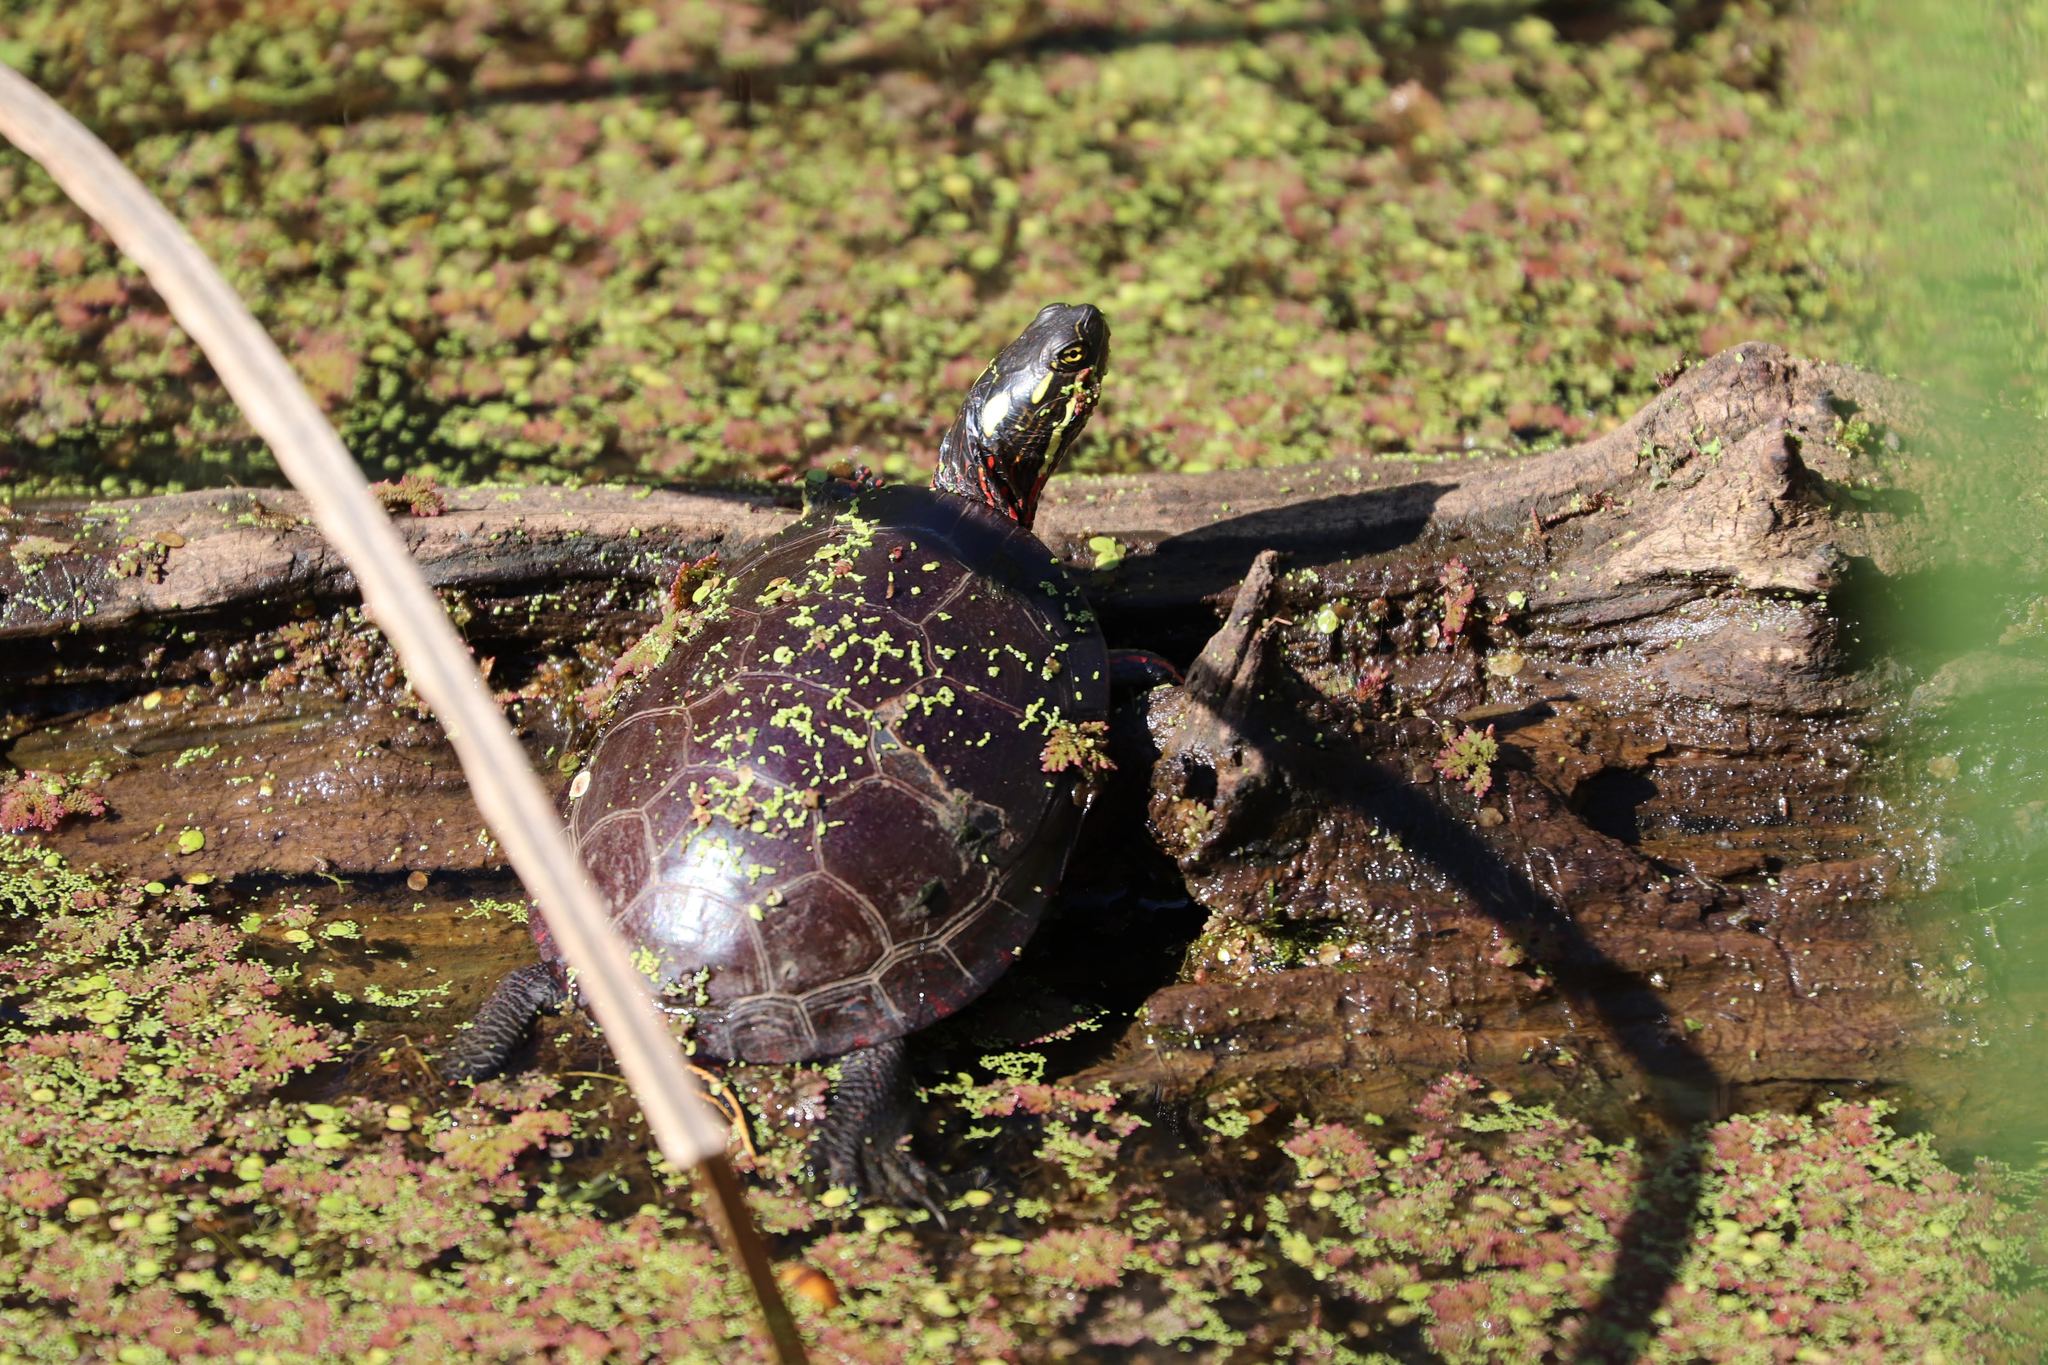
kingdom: Animalia
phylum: Chordata
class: Testudines
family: Emydidae
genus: Chrysemys
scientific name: Chrysemys picta
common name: Painted turtle
